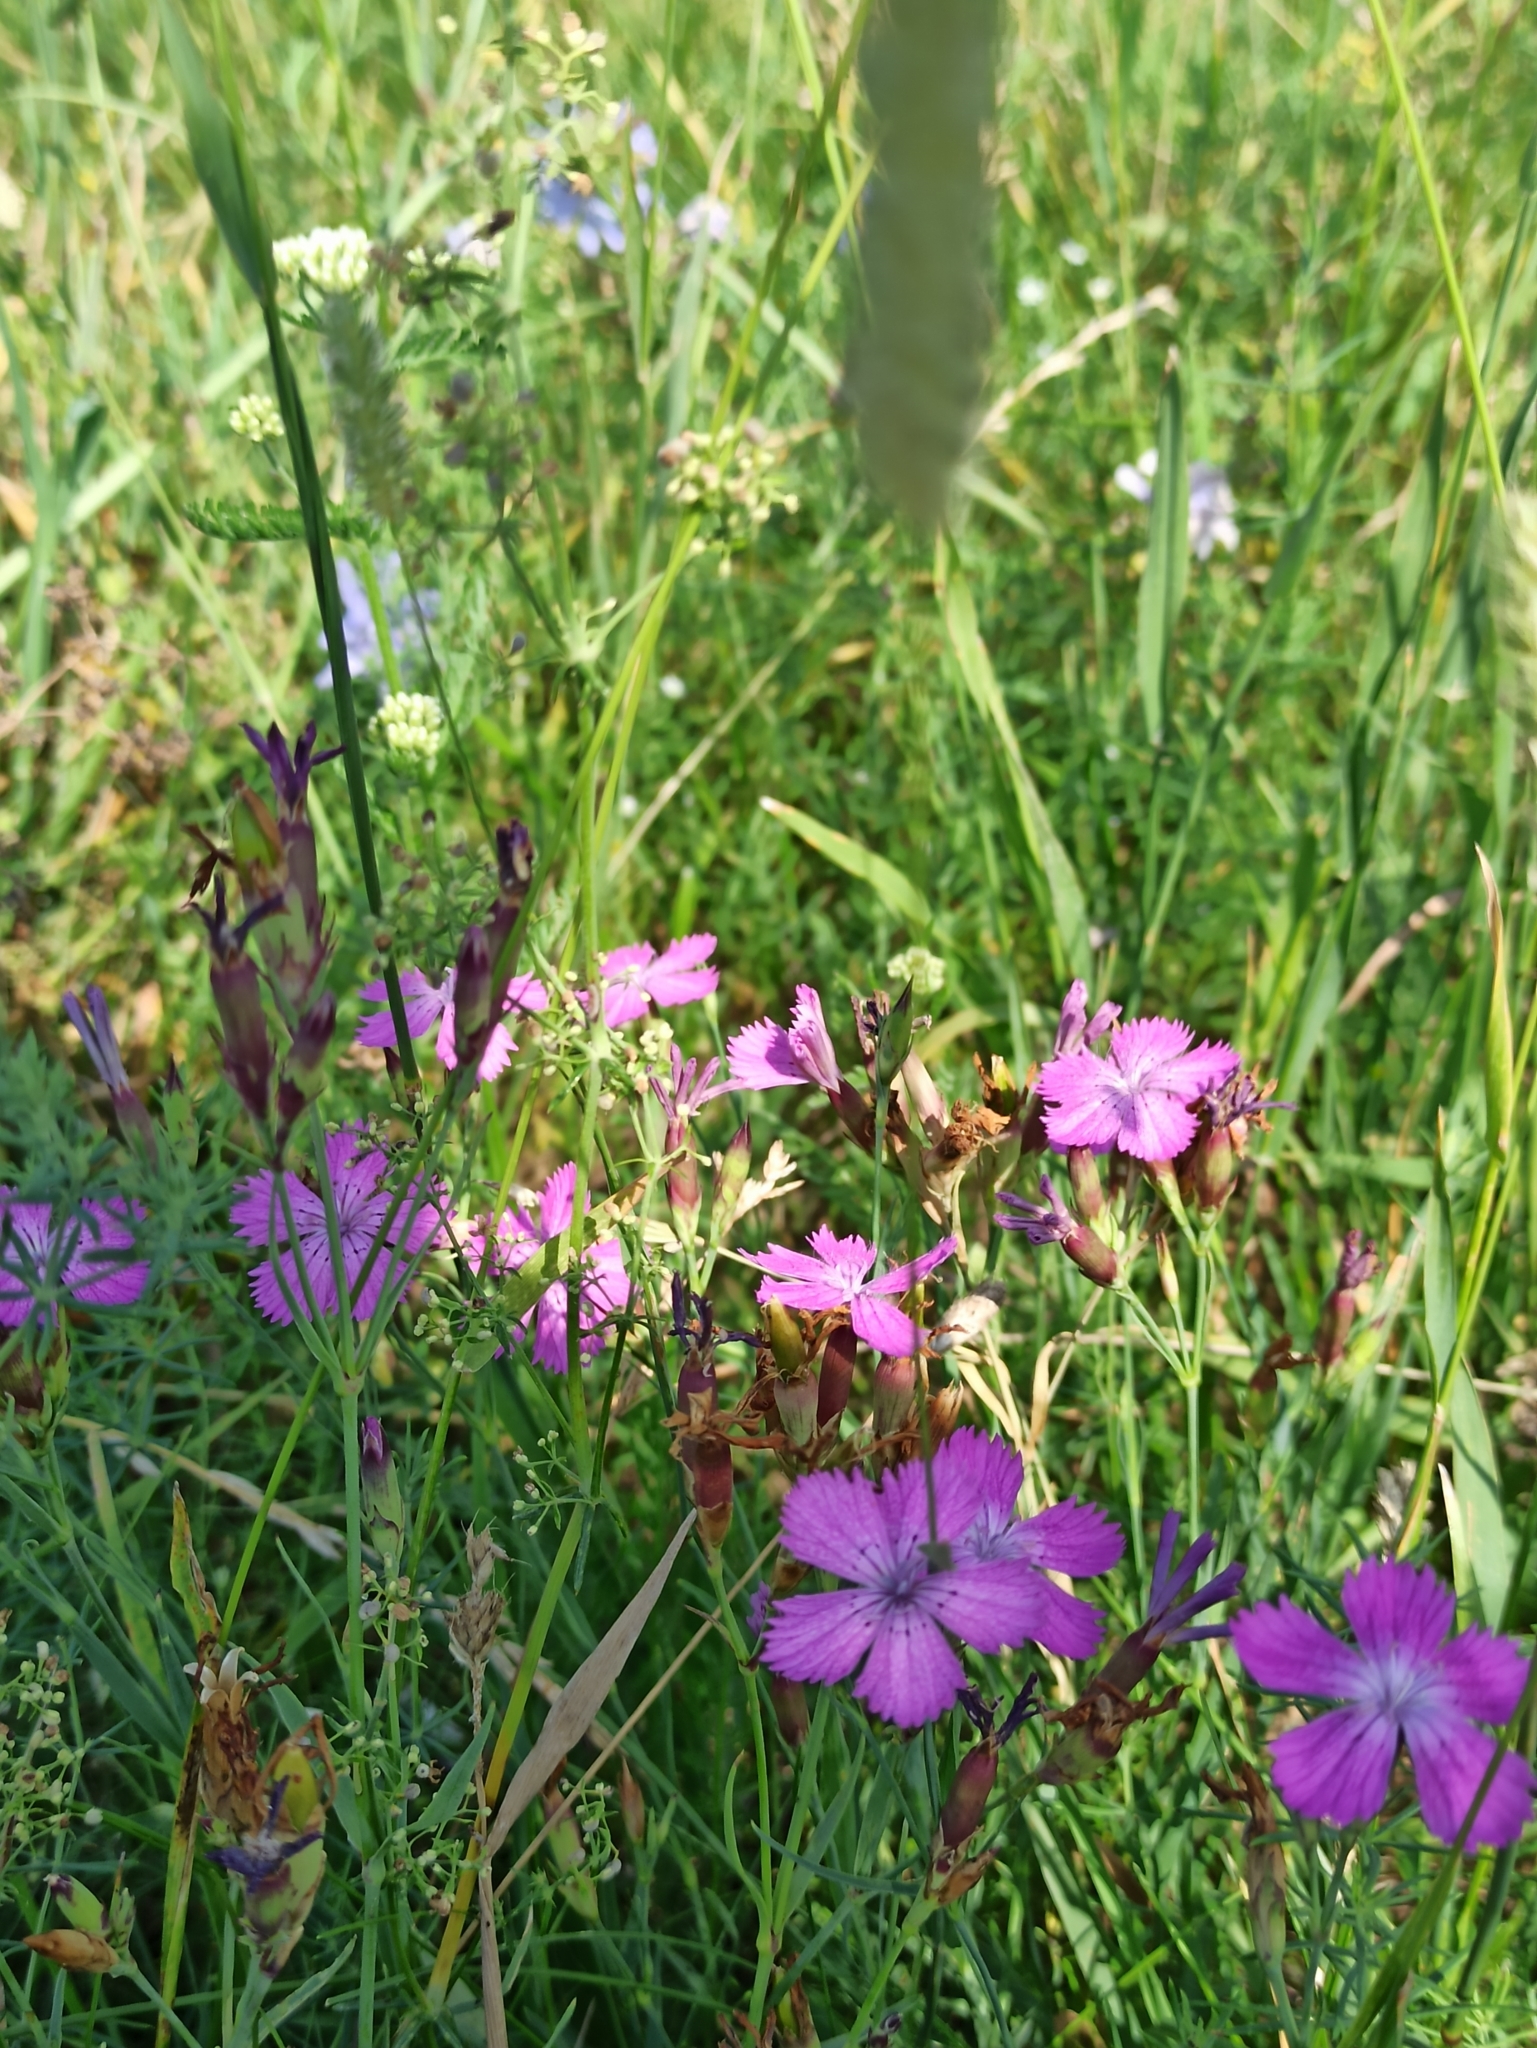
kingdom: Plantae
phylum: Tracheophyta
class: Magnoliopsida
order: Caryophyllales
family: Caryophyllaceae
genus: Dianthus
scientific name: Dianthus chinensis
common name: Rainbow pink
